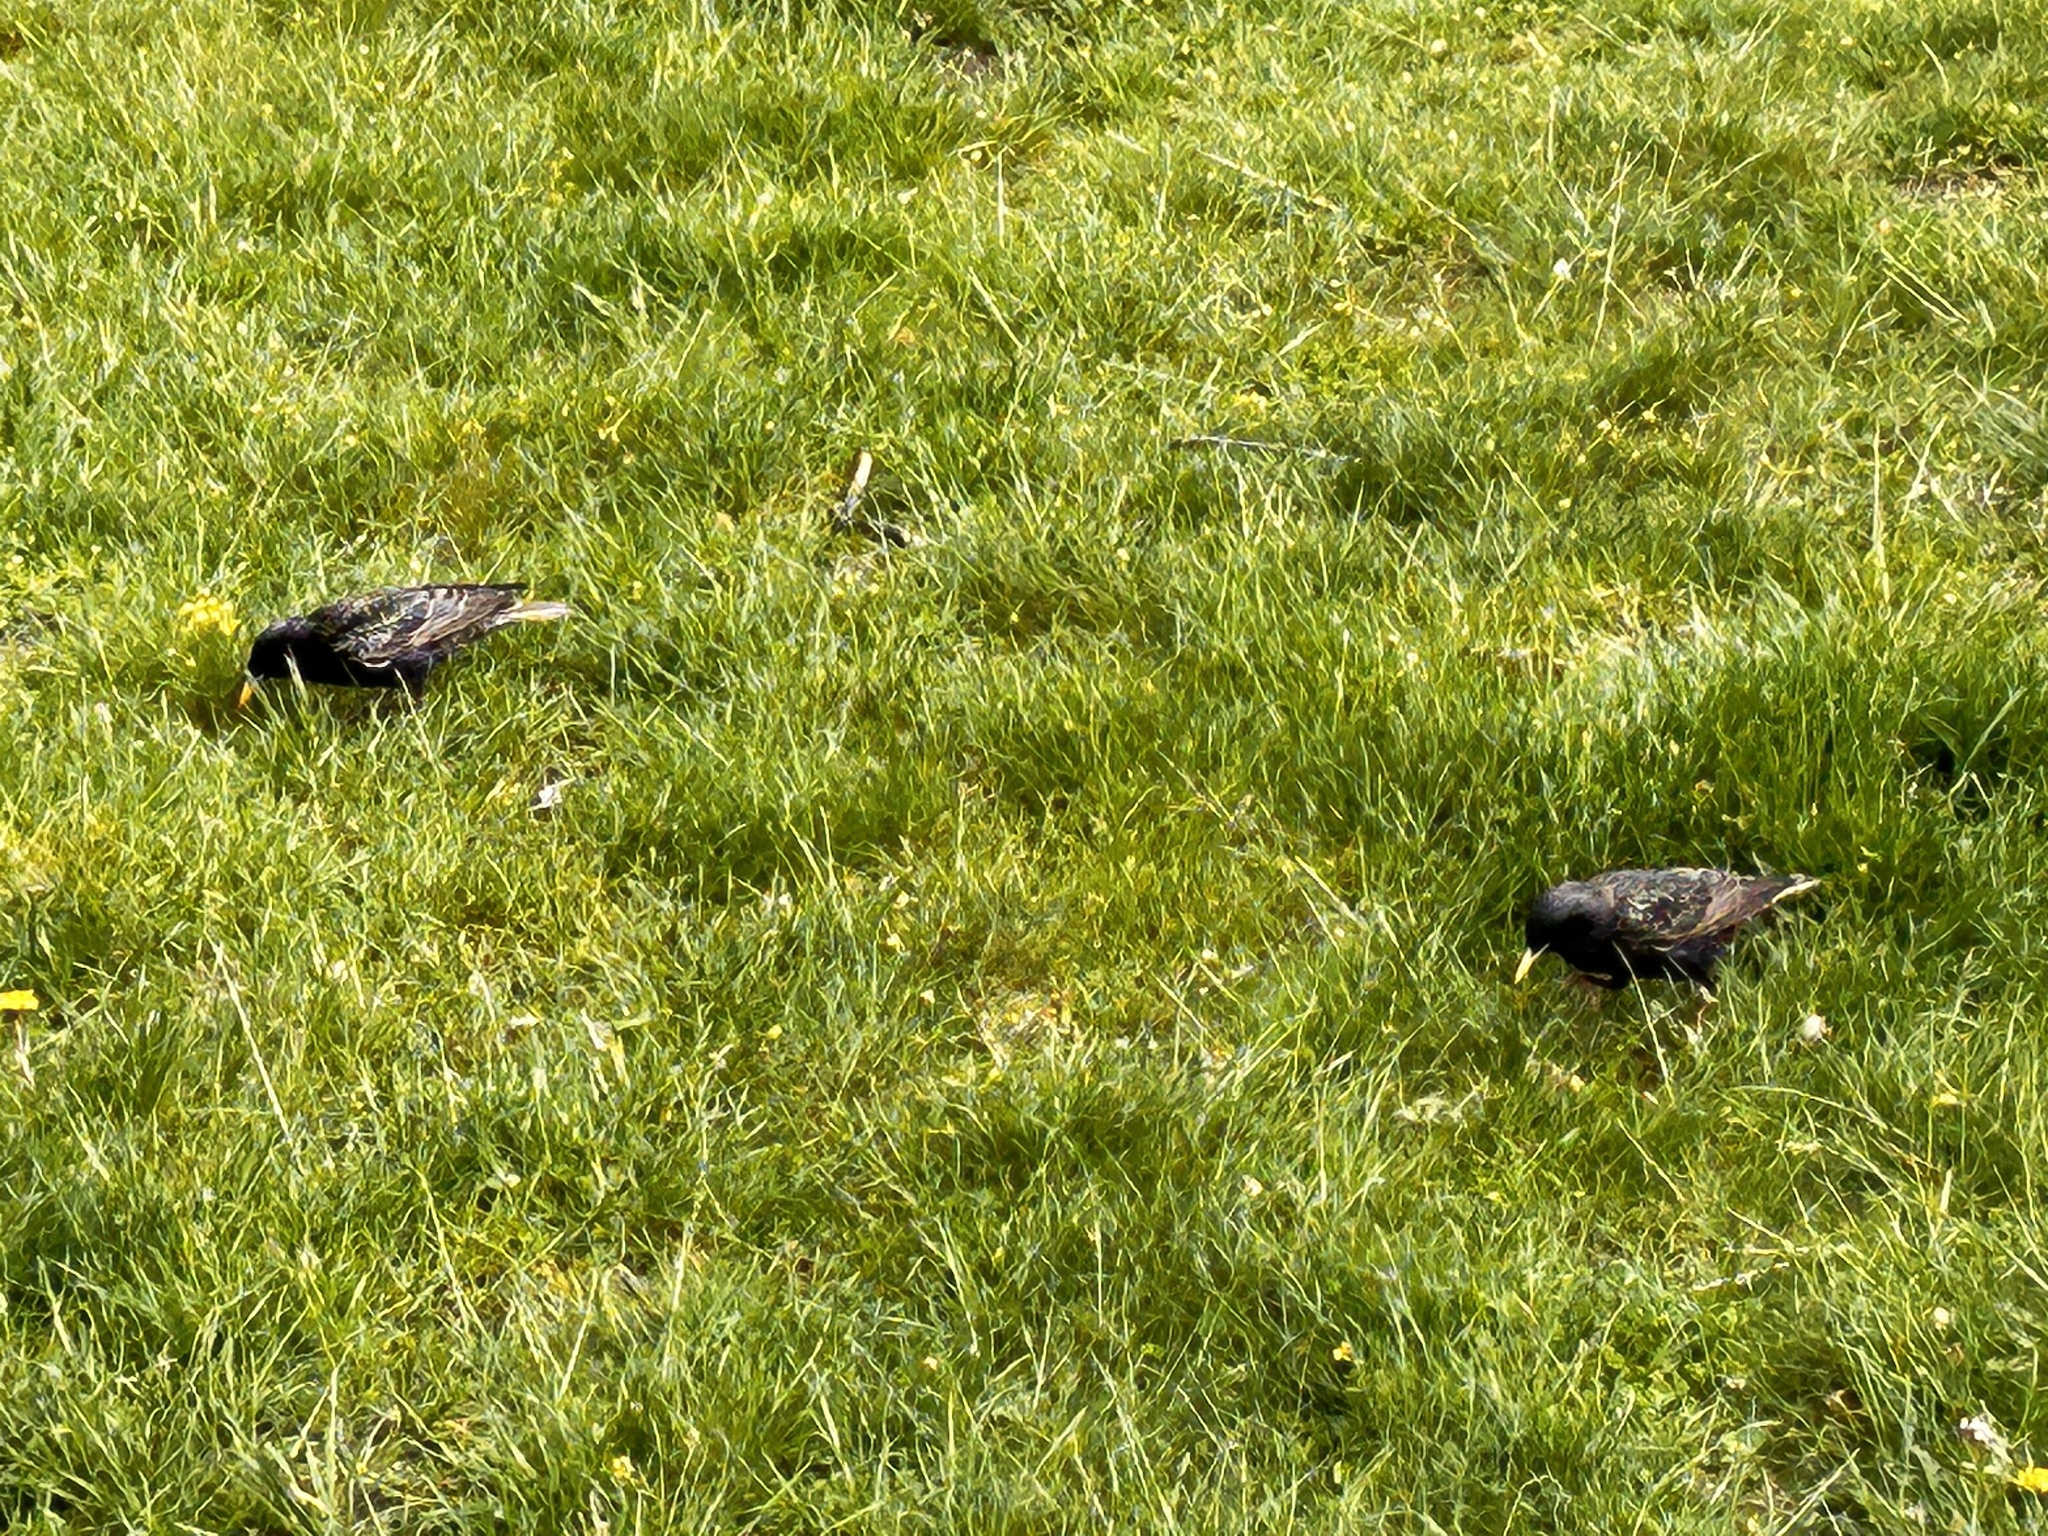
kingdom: Animalia
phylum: Chordata
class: Aves
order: Passeriformes
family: Sturnidae
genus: Sturnus
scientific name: Sturnus vulgaris
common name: Common starling
